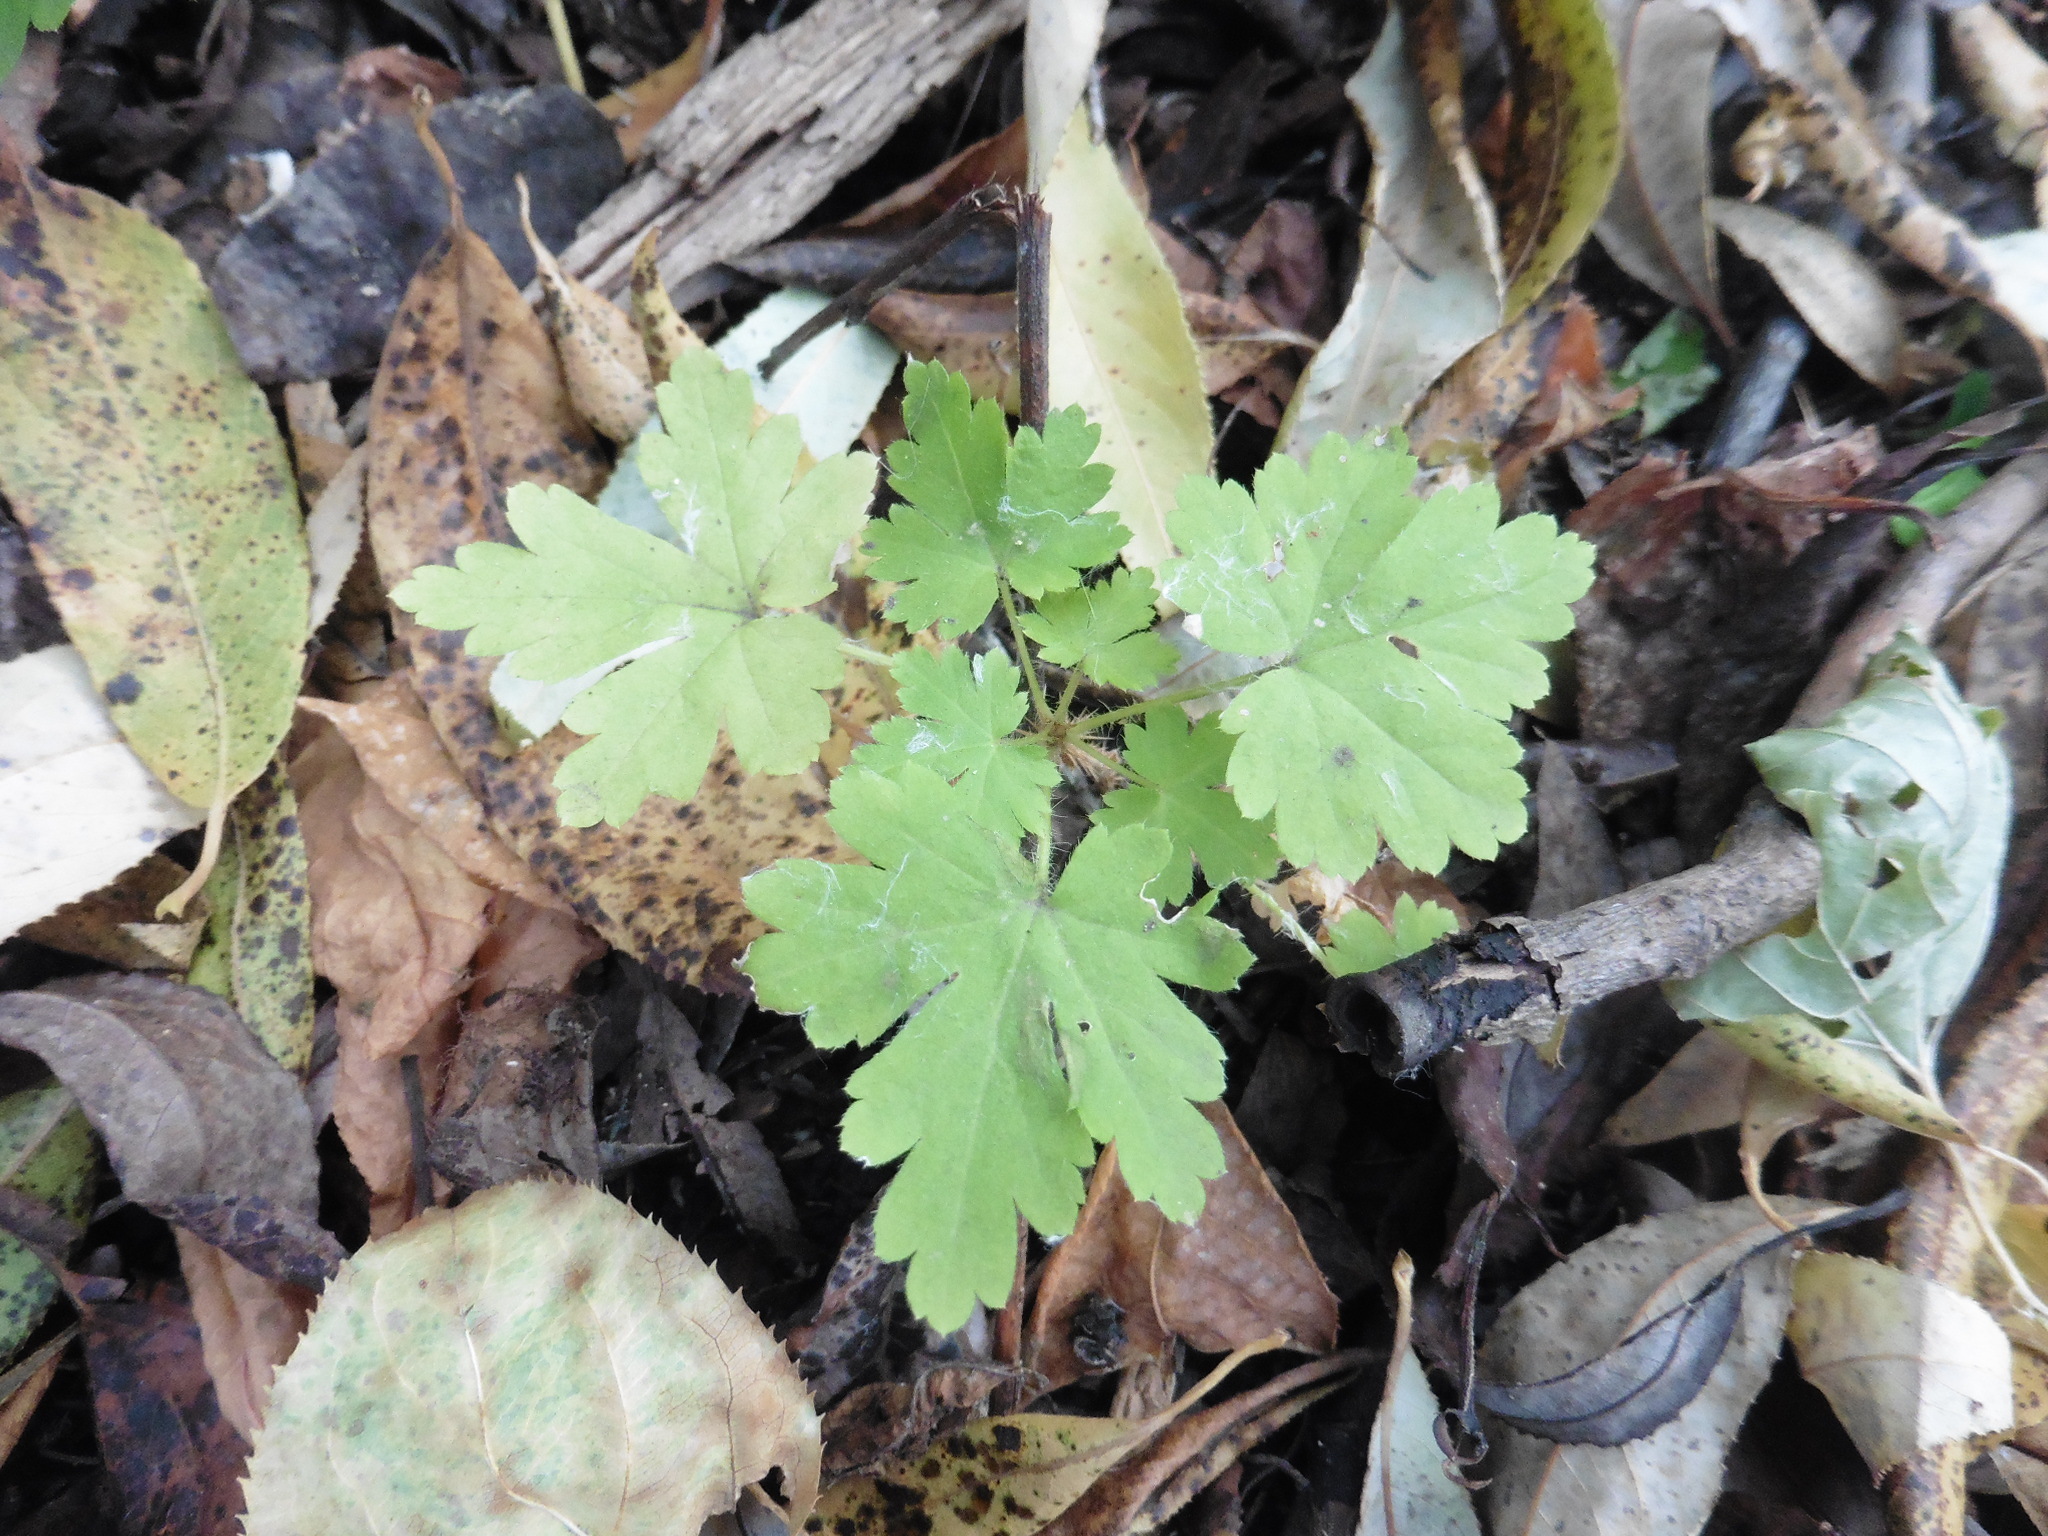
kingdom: Plantae
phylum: Tracheophyta
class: Magnoliopsida
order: Saxifragales
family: Grossulariaceae
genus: Ribes
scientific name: Ribes uva-crispa
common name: Gooseberry
